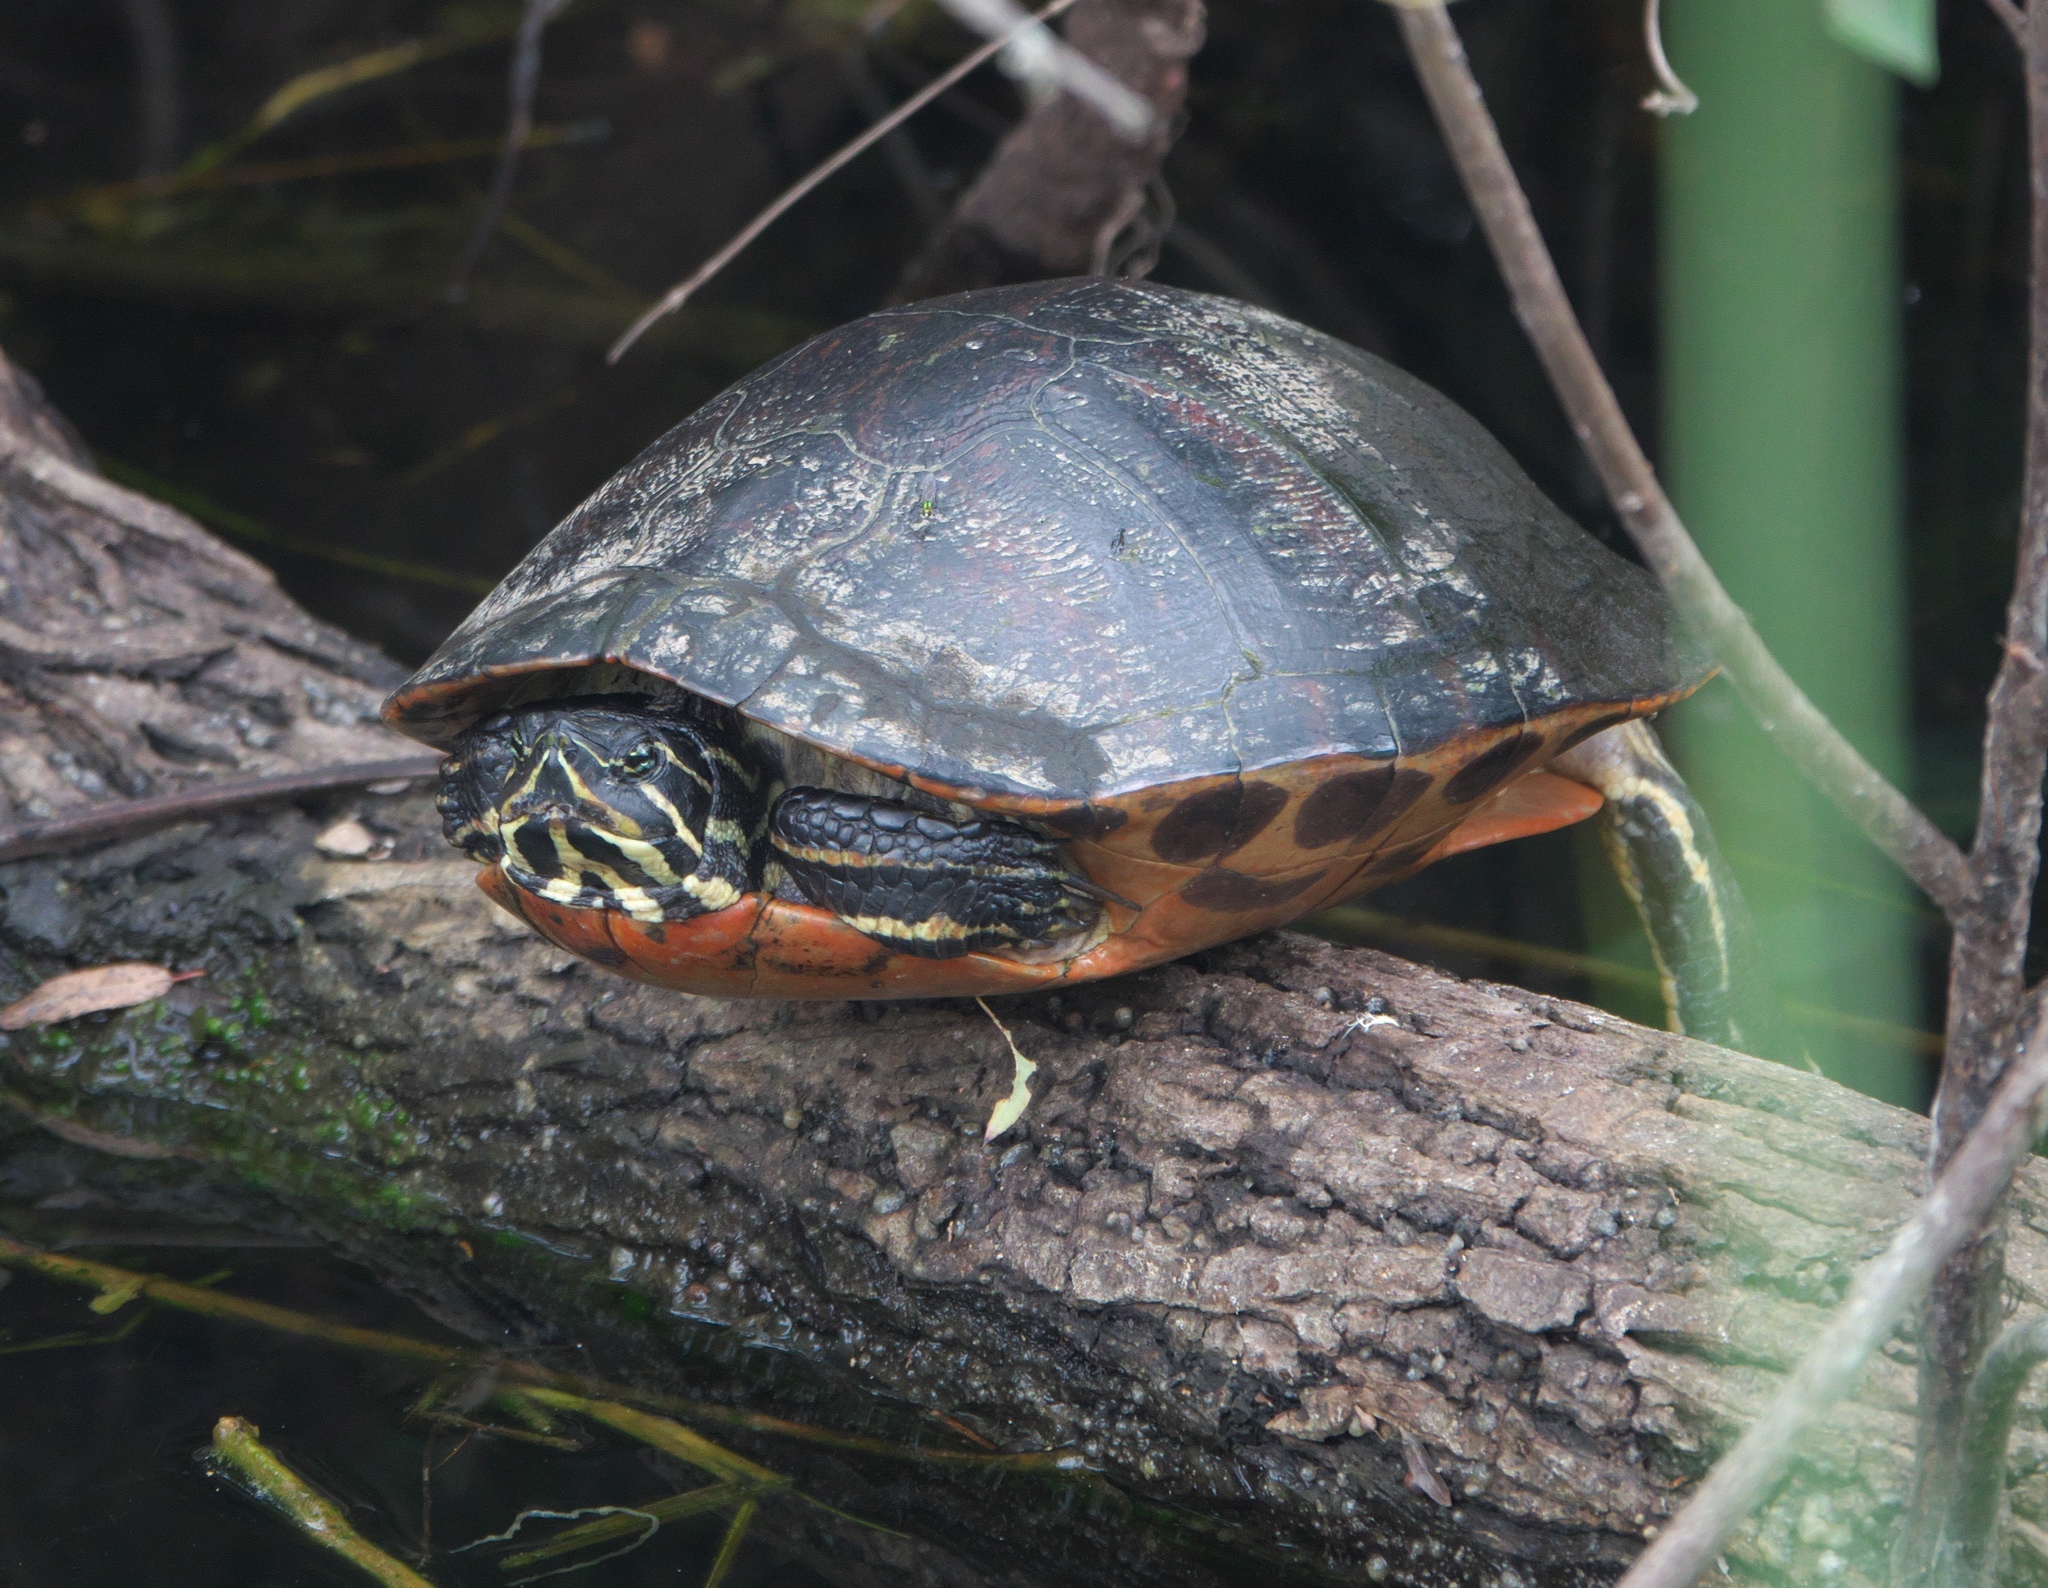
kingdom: Animalia
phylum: Chordata
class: Testudines
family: Emydidae
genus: Pseudemys
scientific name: Pseudemys nelsoni
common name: Florida red-bellied turtle
